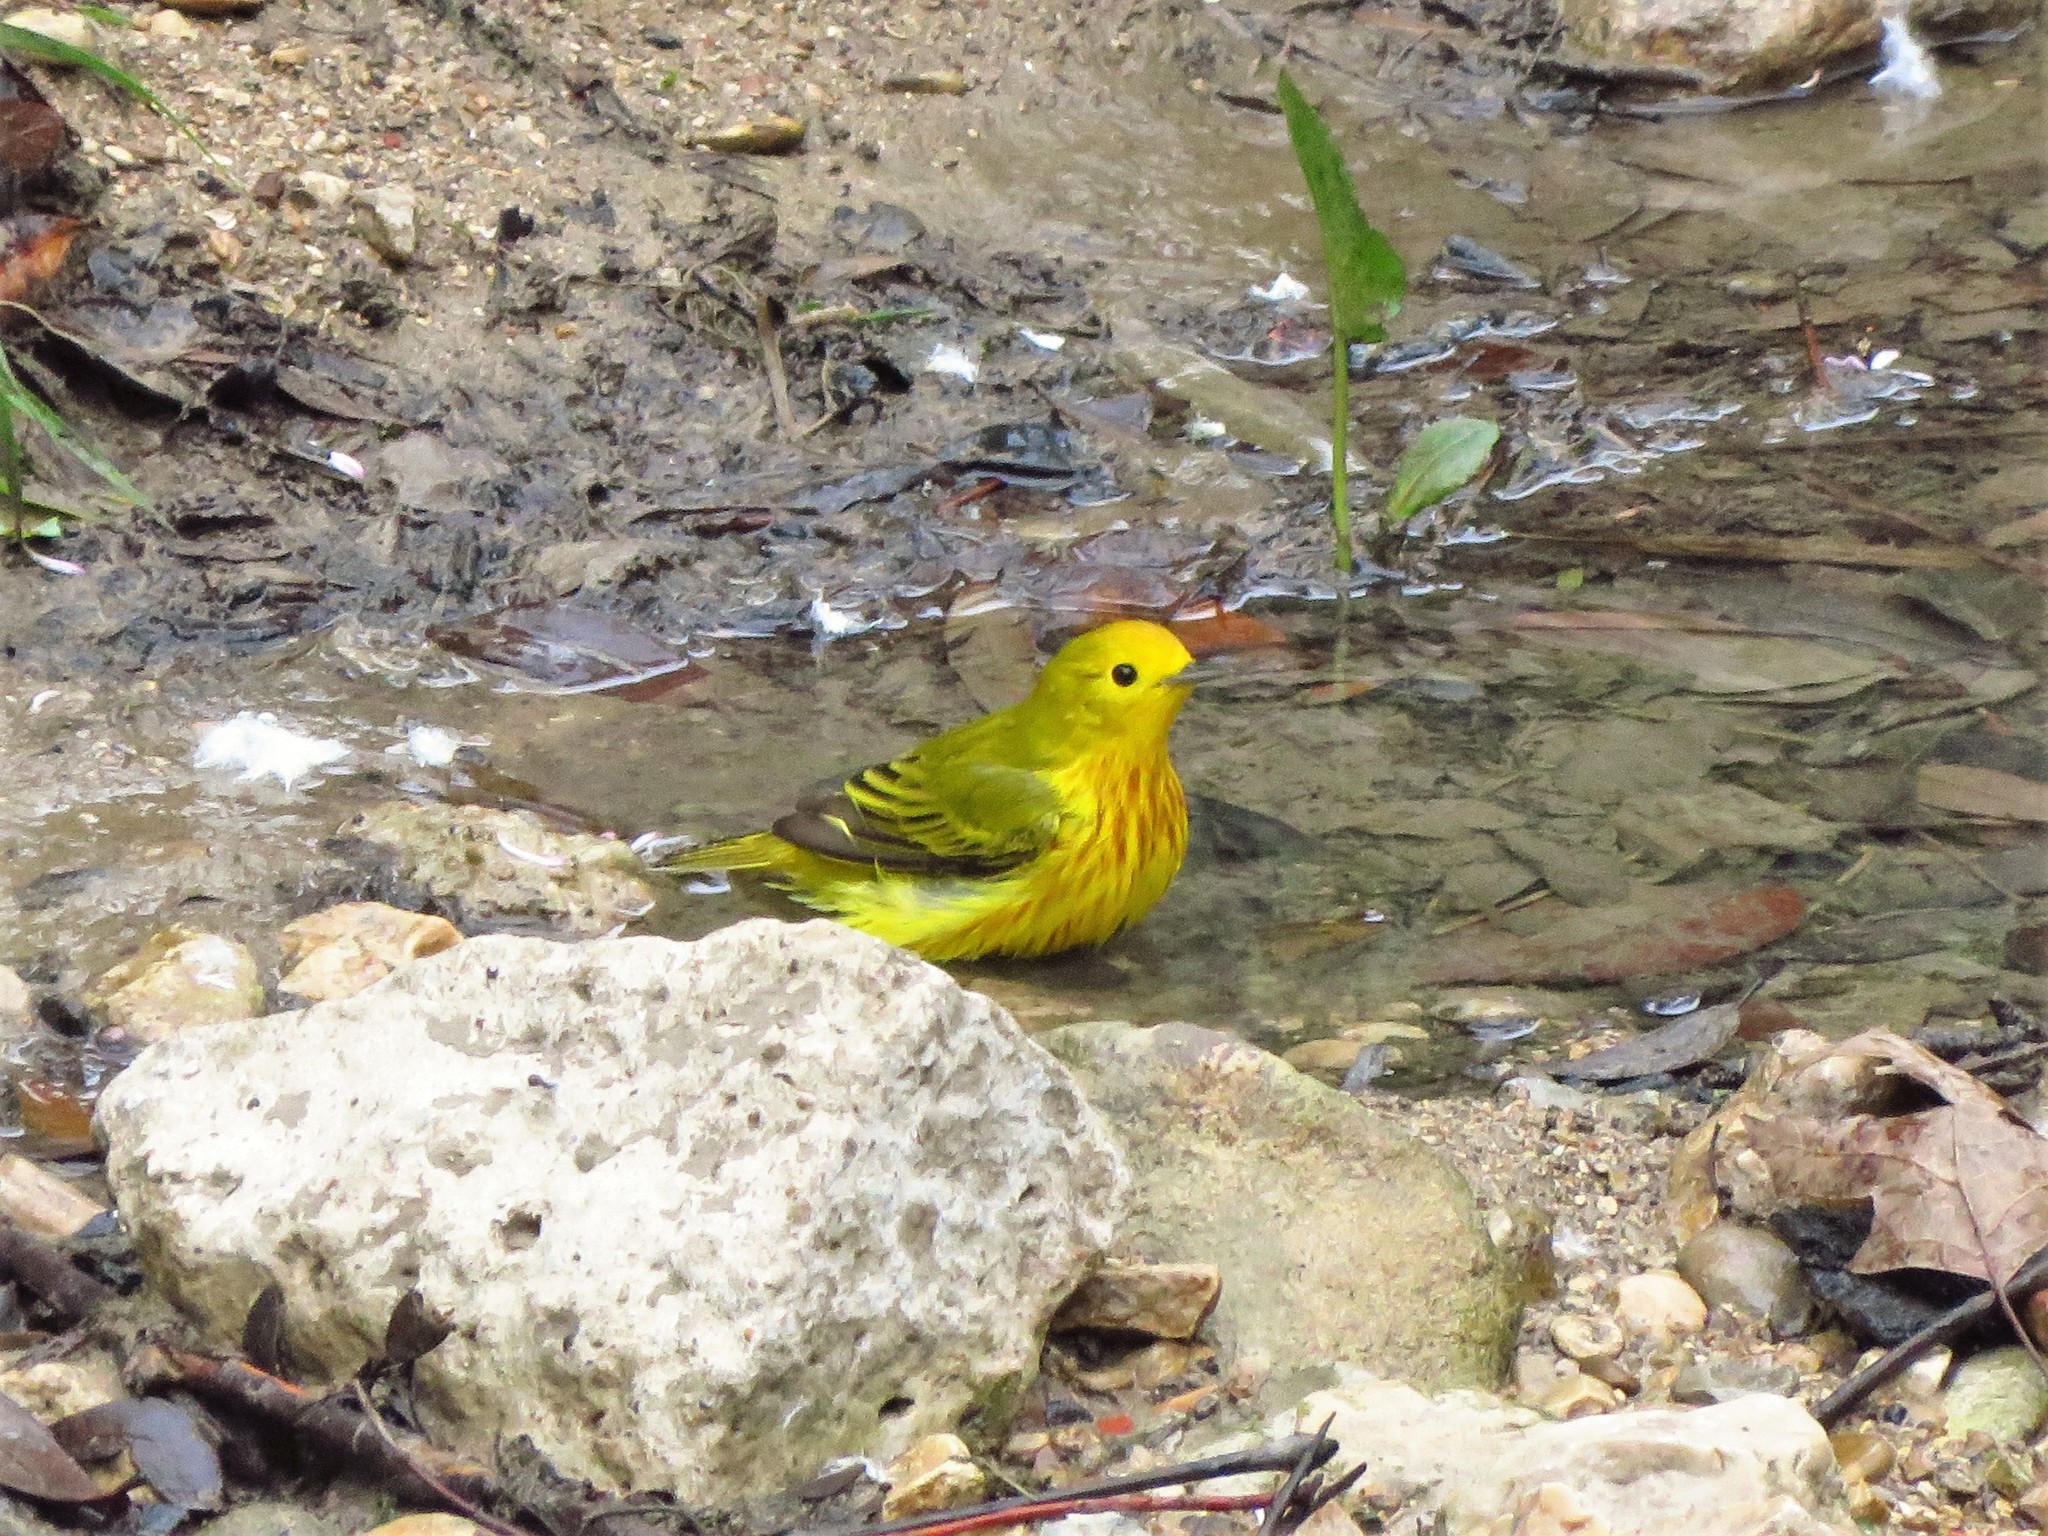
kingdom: Animalia
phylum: Chordata
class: Aves
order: Passeriformes
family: Parulidae
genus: Setophaga
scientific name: Setophaga petechia
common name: Yellow warbler
